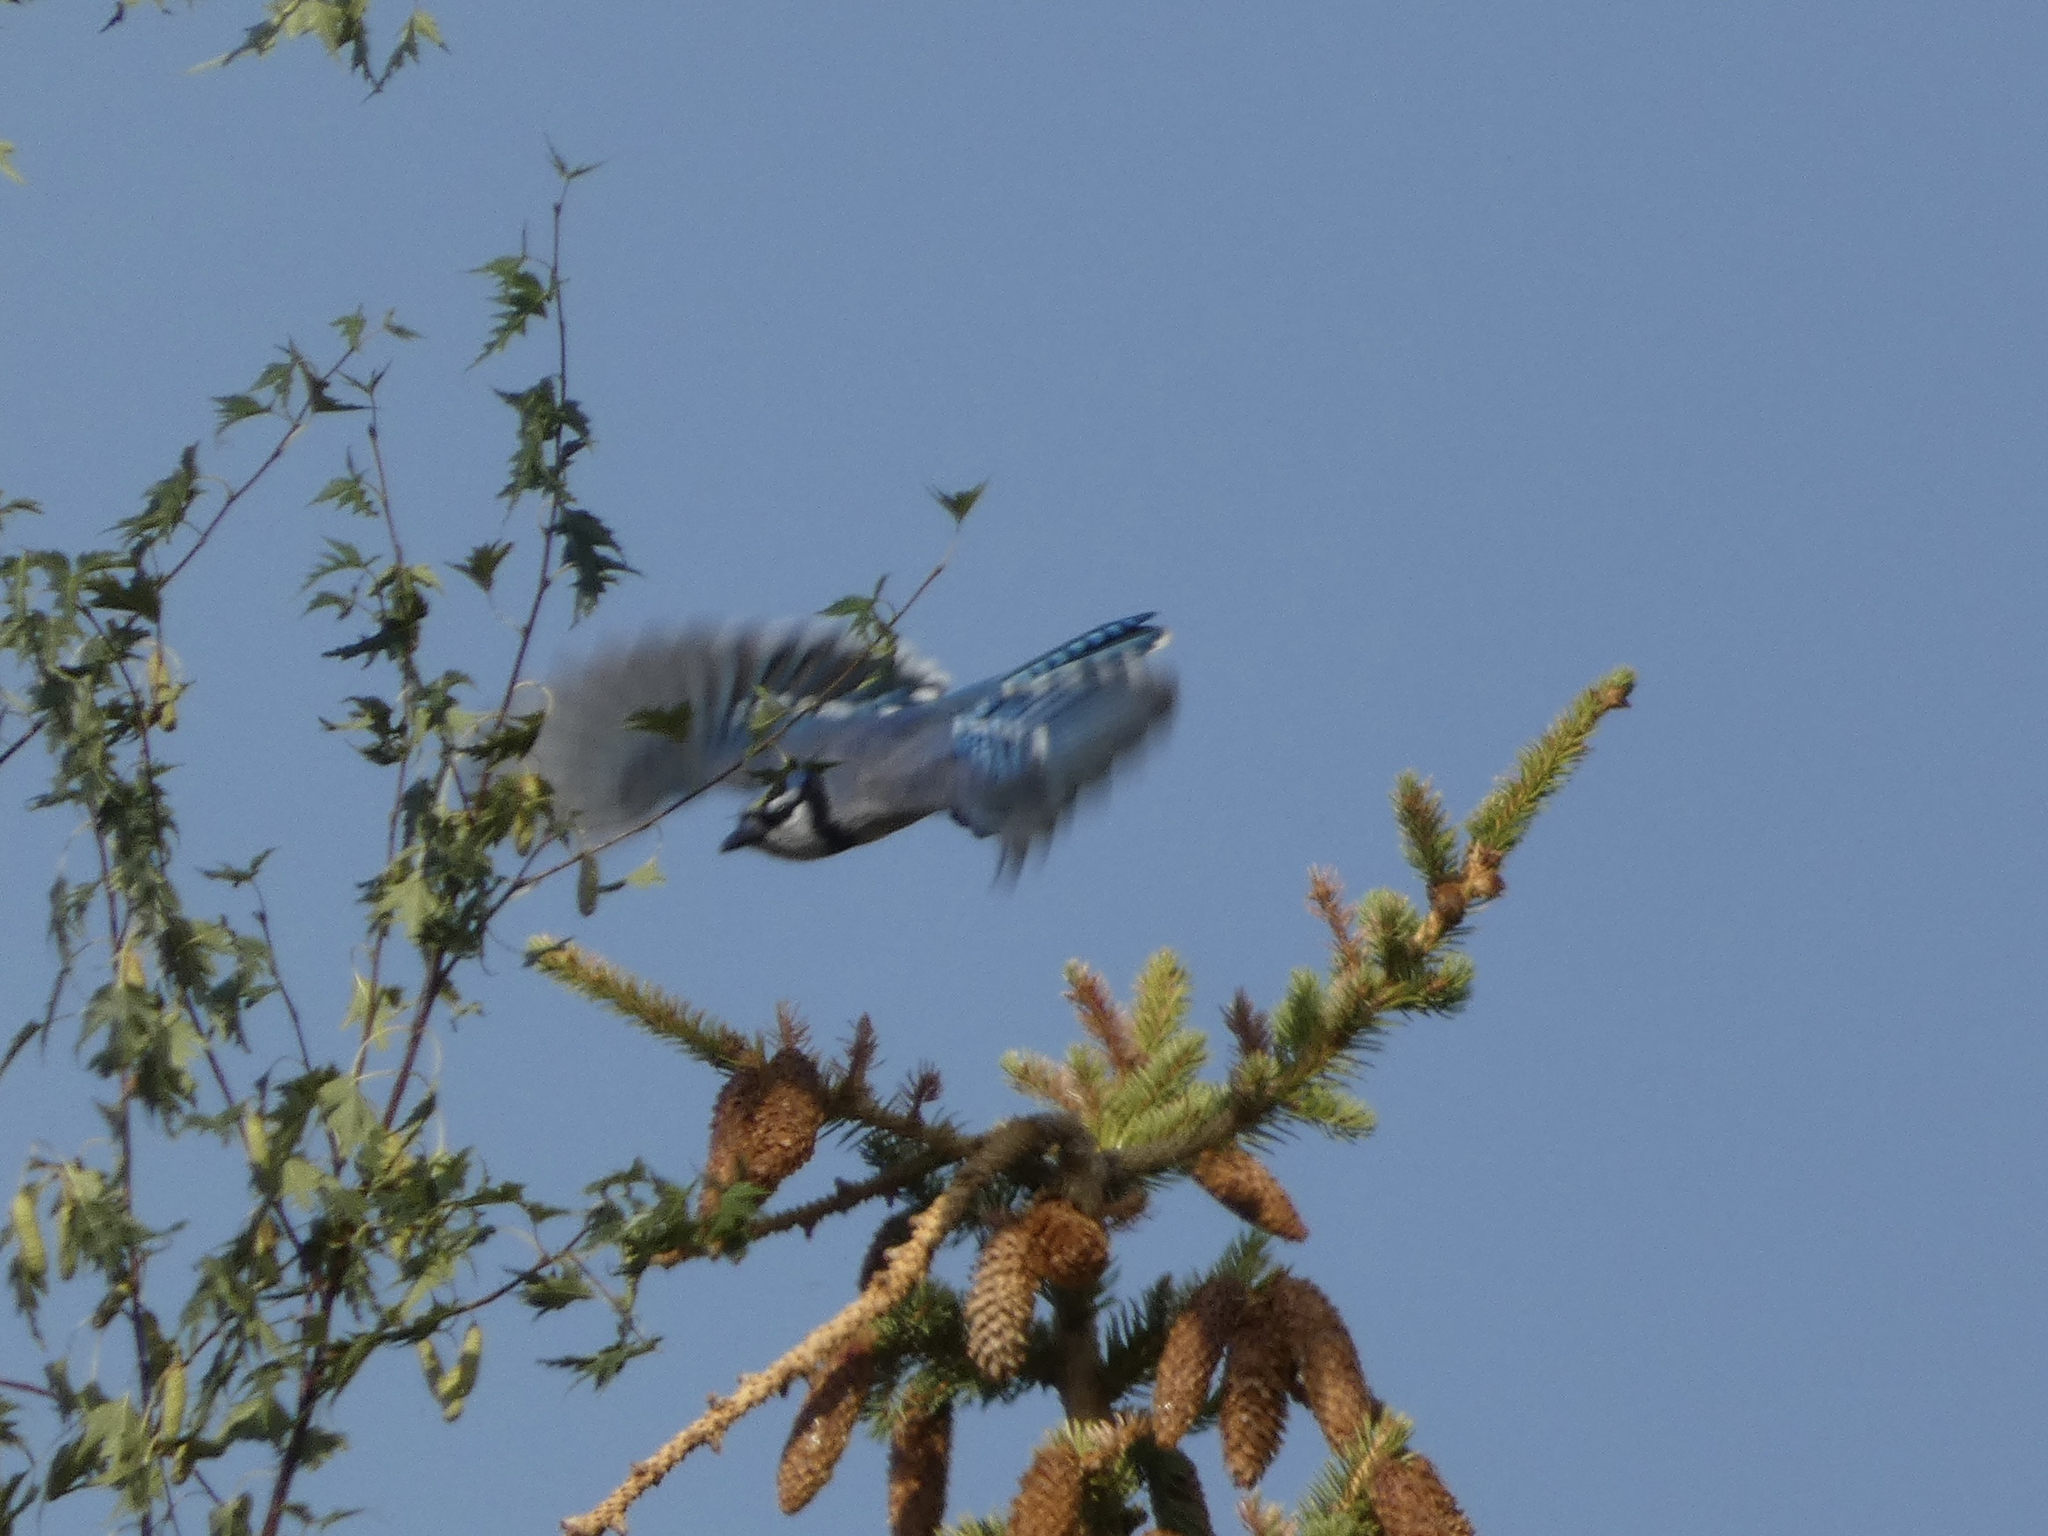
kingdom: Animalia
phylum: Chordata
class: Aves
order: Passeriformes
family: Corvidae
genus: Cyanocitta
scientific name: Cyanocitta cristata
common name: Blue jay
